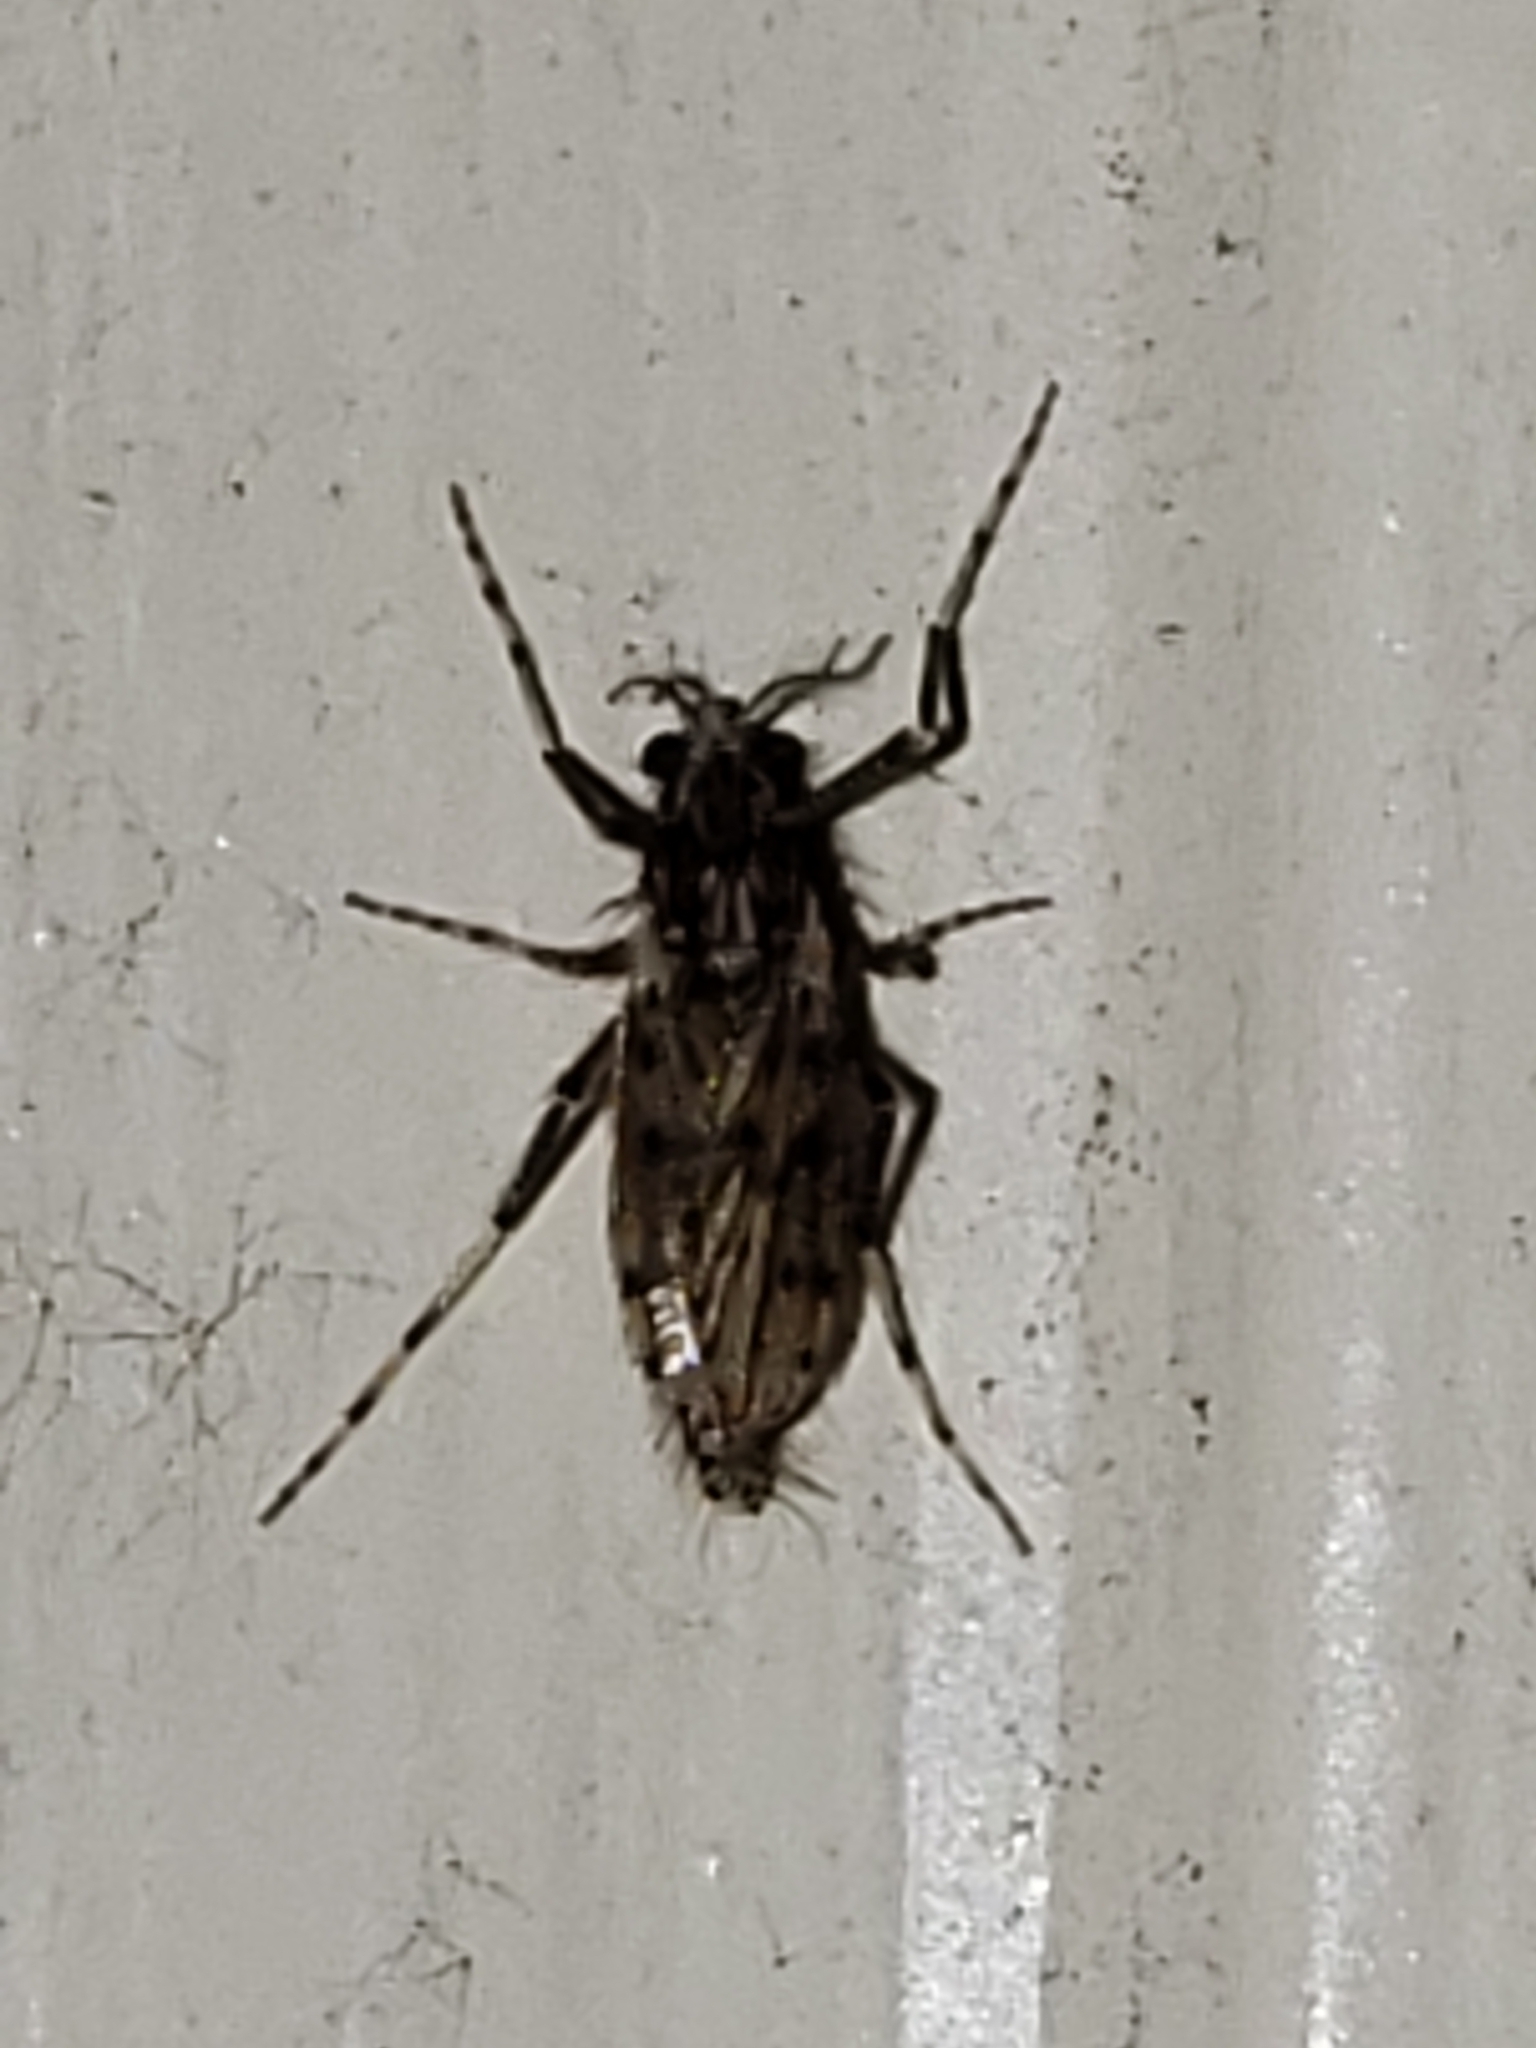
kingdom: Animalia
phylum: Arthropoda
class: Insecta
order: Diptera
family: Chaoboridae
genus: Chaoborus
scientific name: Chaoborus punctipennis
